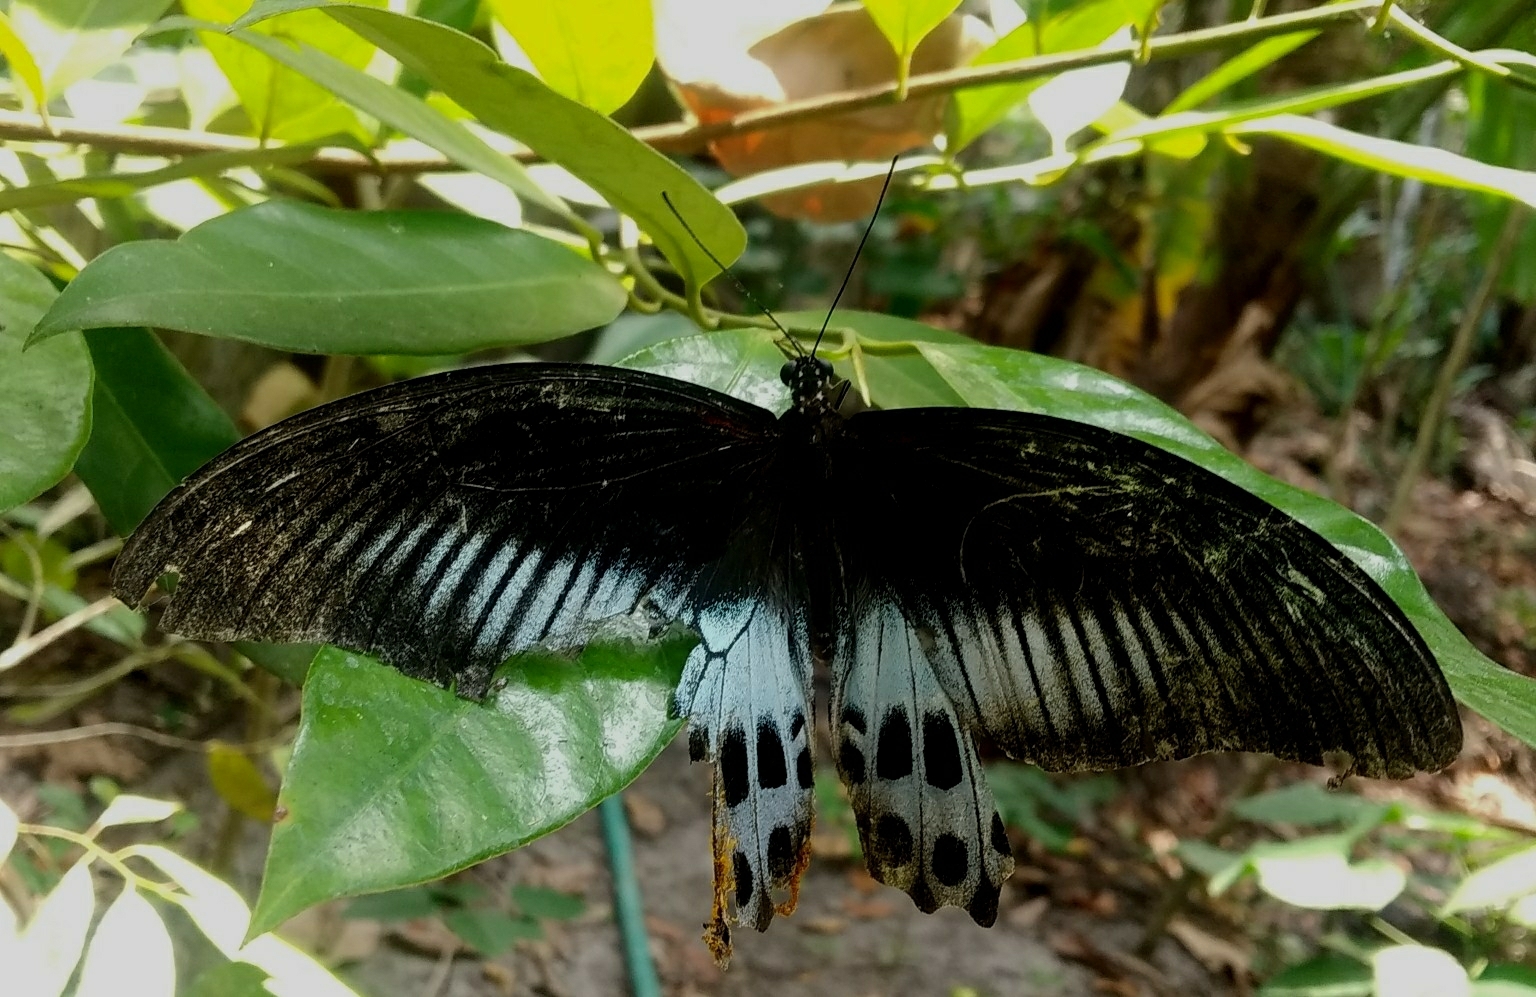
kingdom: Animalia
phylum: Arthropoda
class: Insecta
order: Lepidoptera
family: Papilionidae
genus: Papilio
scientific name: Papilio memnon
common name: Great mormon
